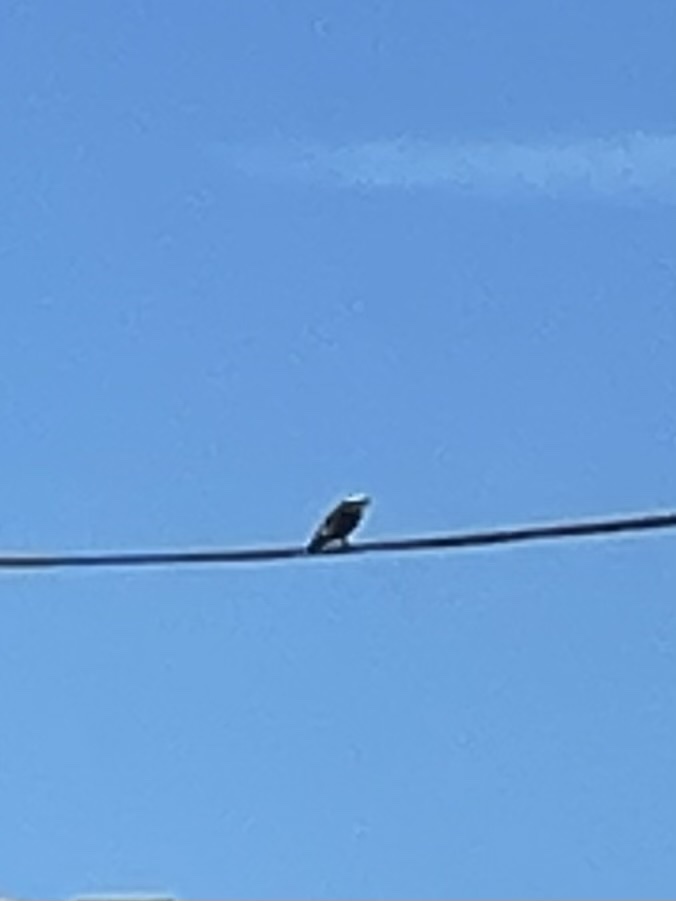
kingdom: Animalia
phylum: Chordata
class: Aves
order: Accipitriformes
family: Pandionidae
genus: Pandion
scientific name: Pandion haliaetus
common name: Osprey
